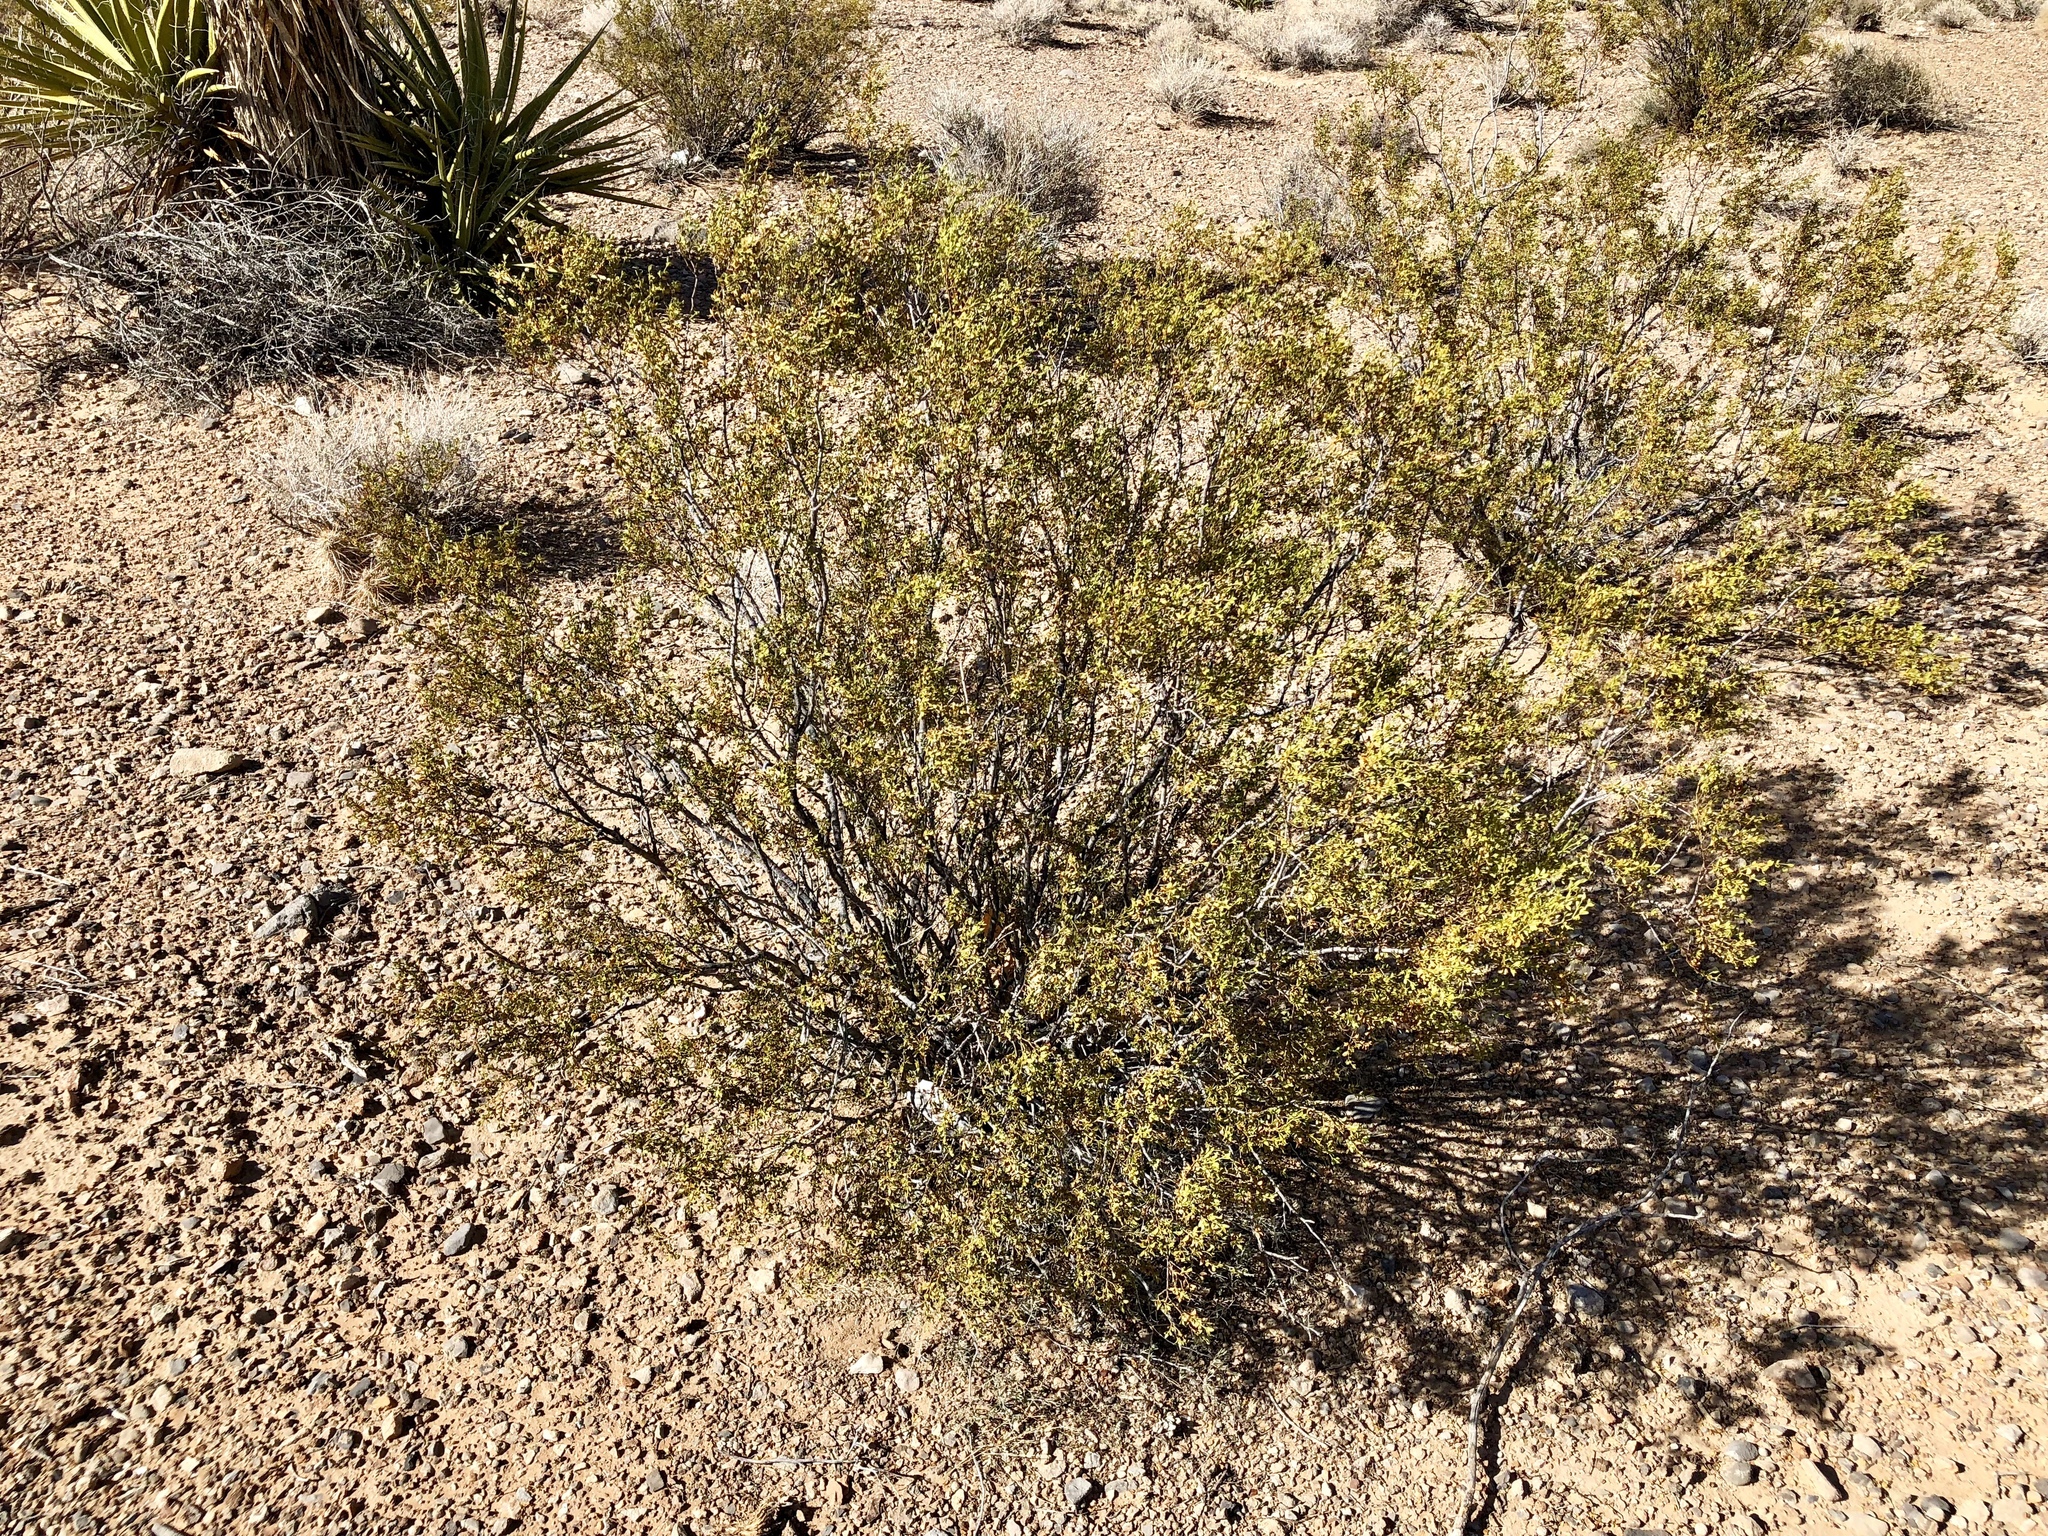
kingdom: Plantae
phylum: Tracheophyta
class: Magnoliopsida
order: Zygophyllales
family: Zygophyllaceae
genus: Larrea
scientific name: Larrea tridentata
